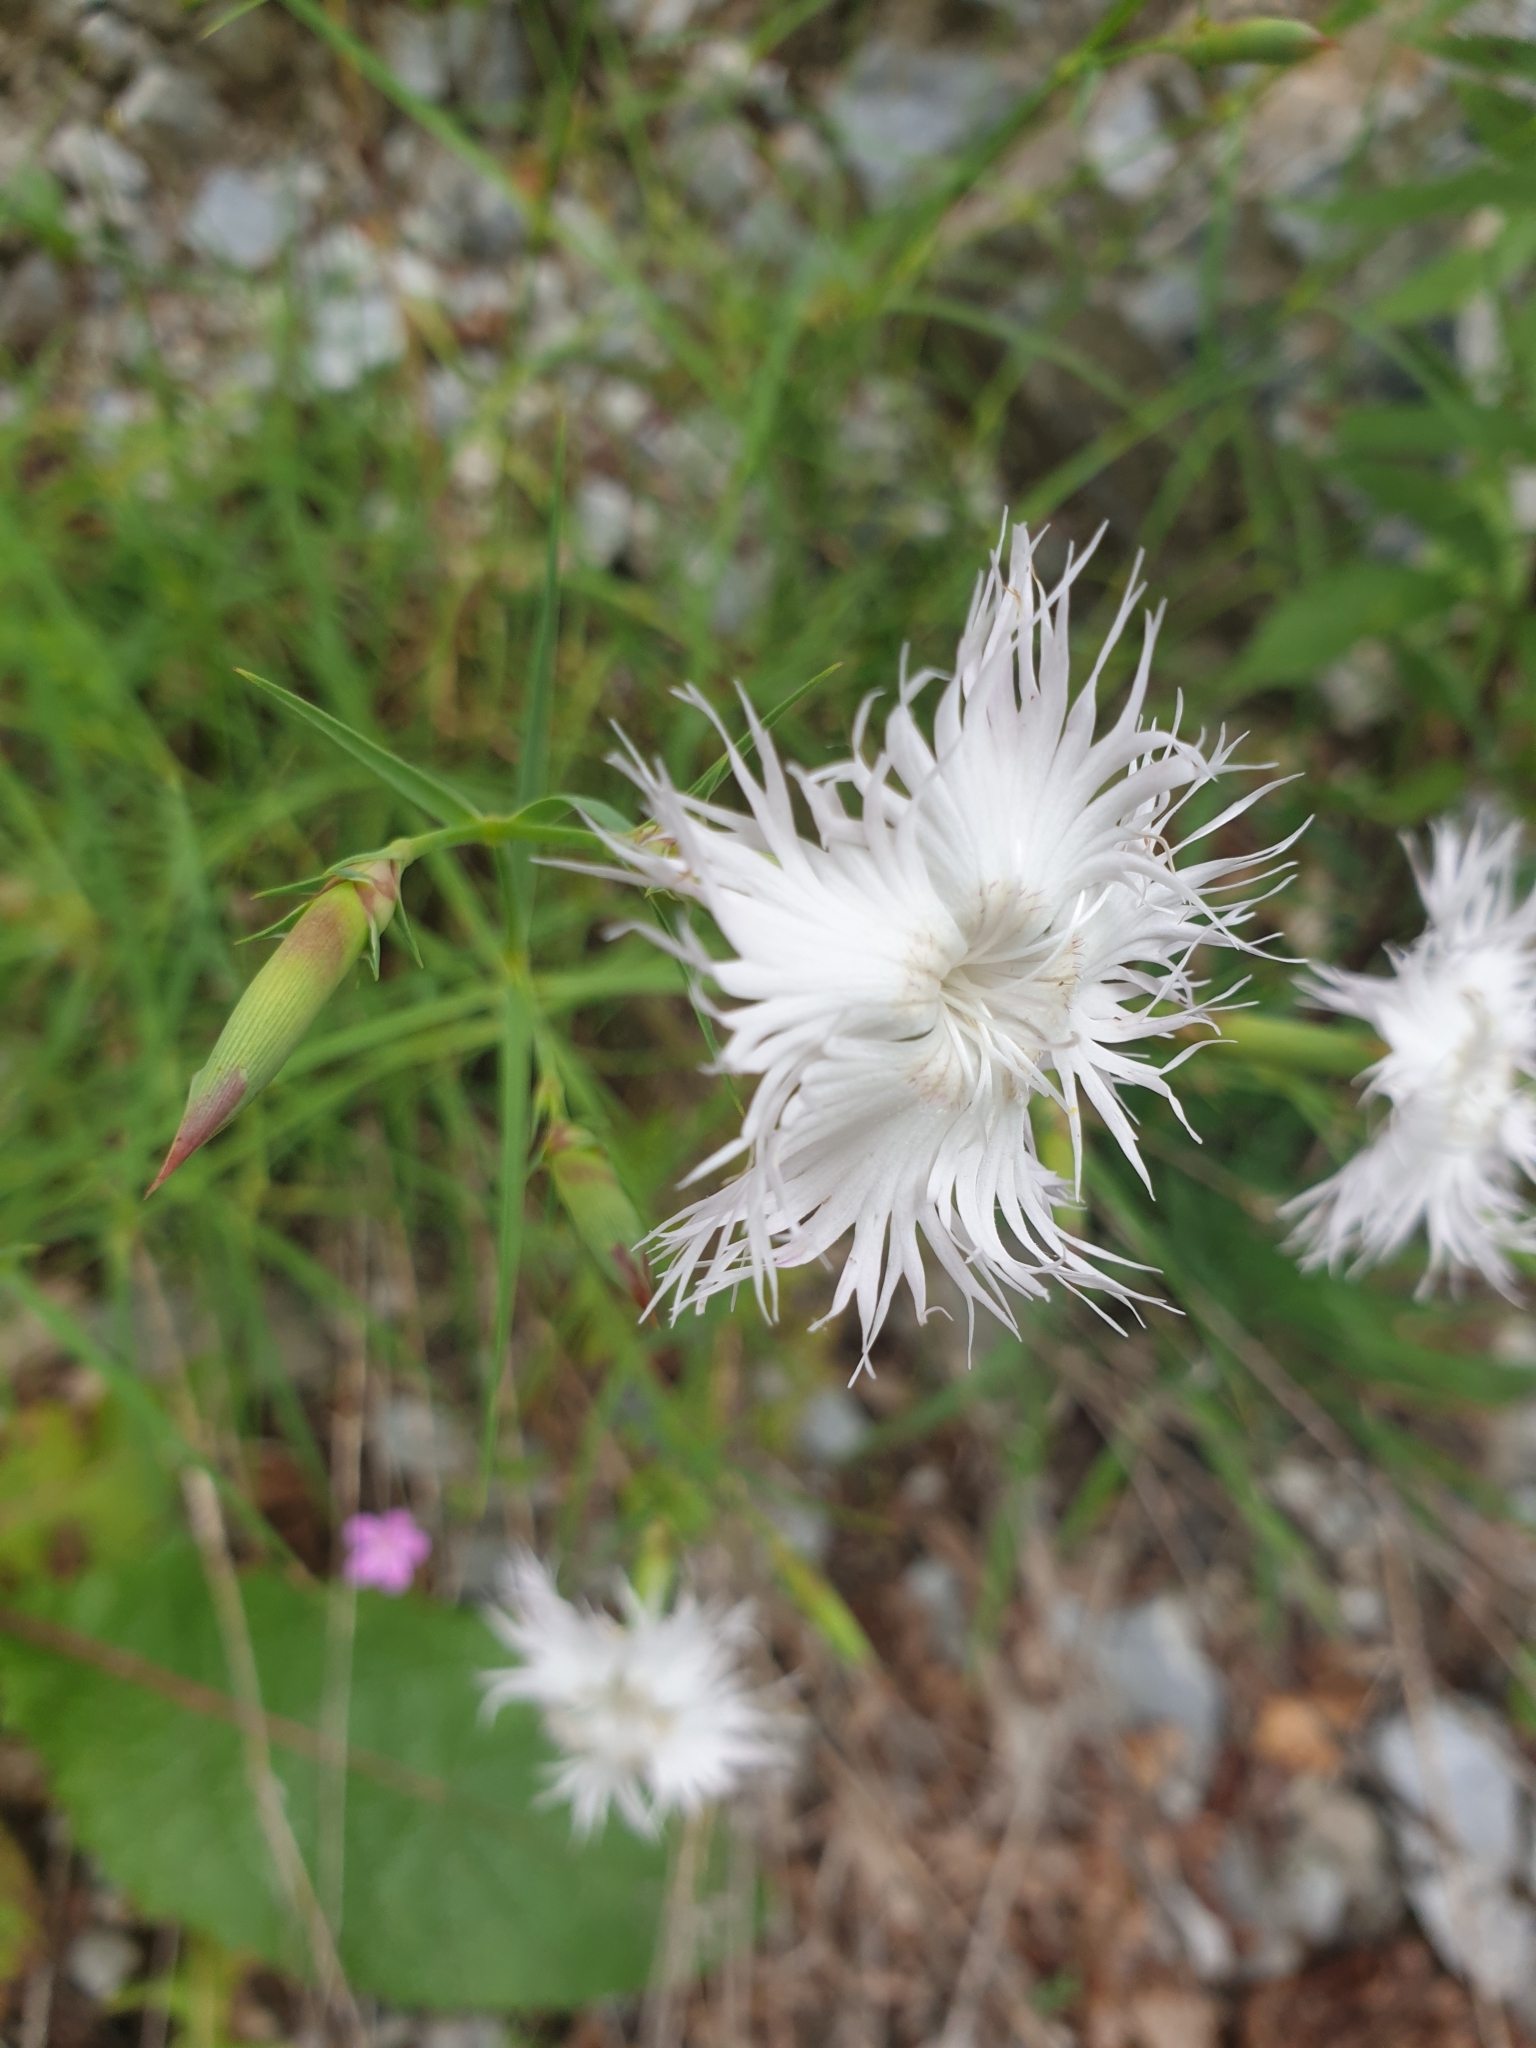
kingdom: Plantae
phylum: Tracheophyta
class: Magnoliopsida
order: Caryophyllales
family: Caryophyllaceae
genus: Dianthus
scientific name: Dianthus hyssopifolius
